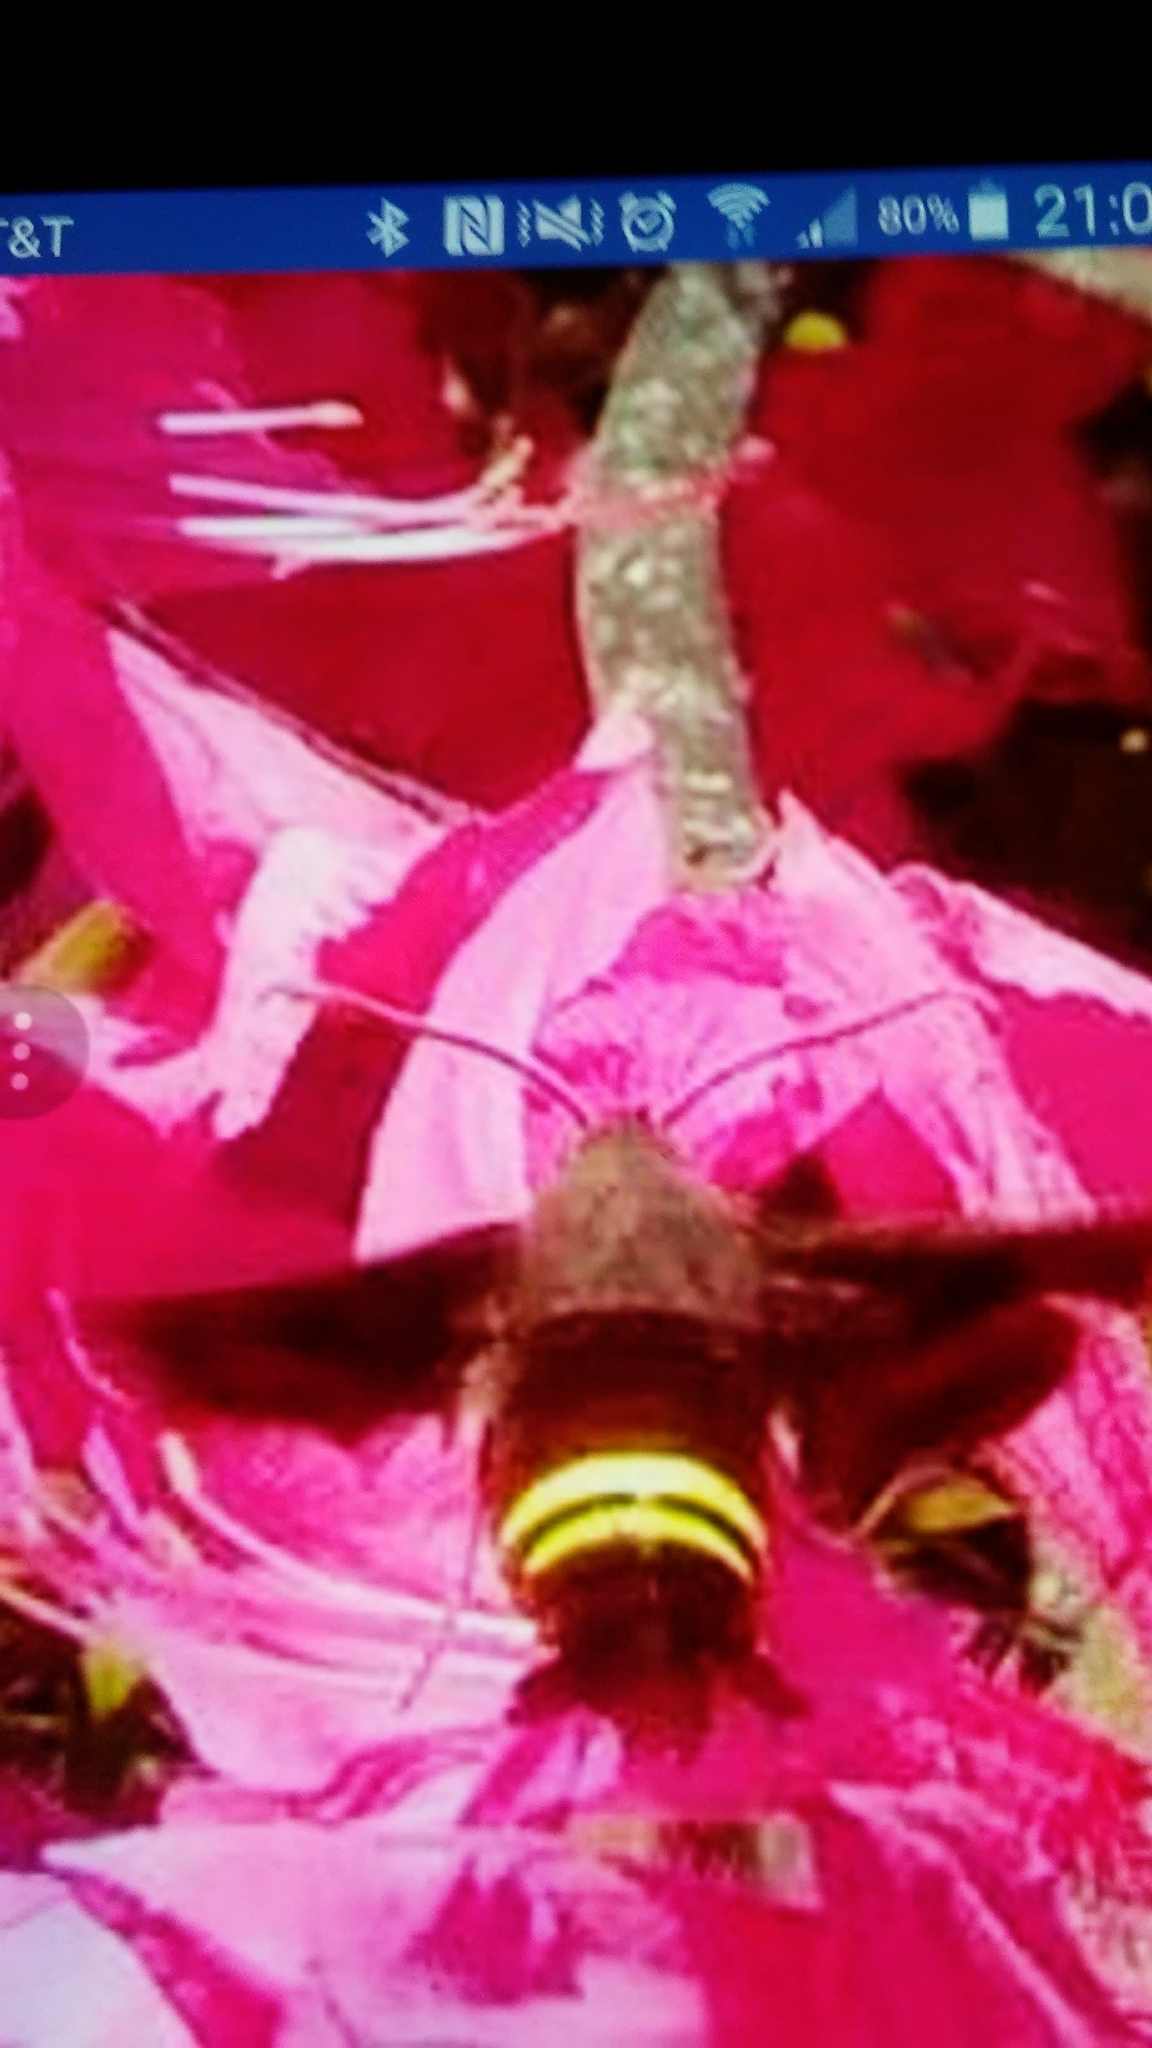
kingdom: Animalia
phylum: Arthropoda
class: Insecta
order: Lepidoptera
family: Sphingidae
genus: Amphion
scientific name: Amphion floridensis
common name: Nessus sphinx
